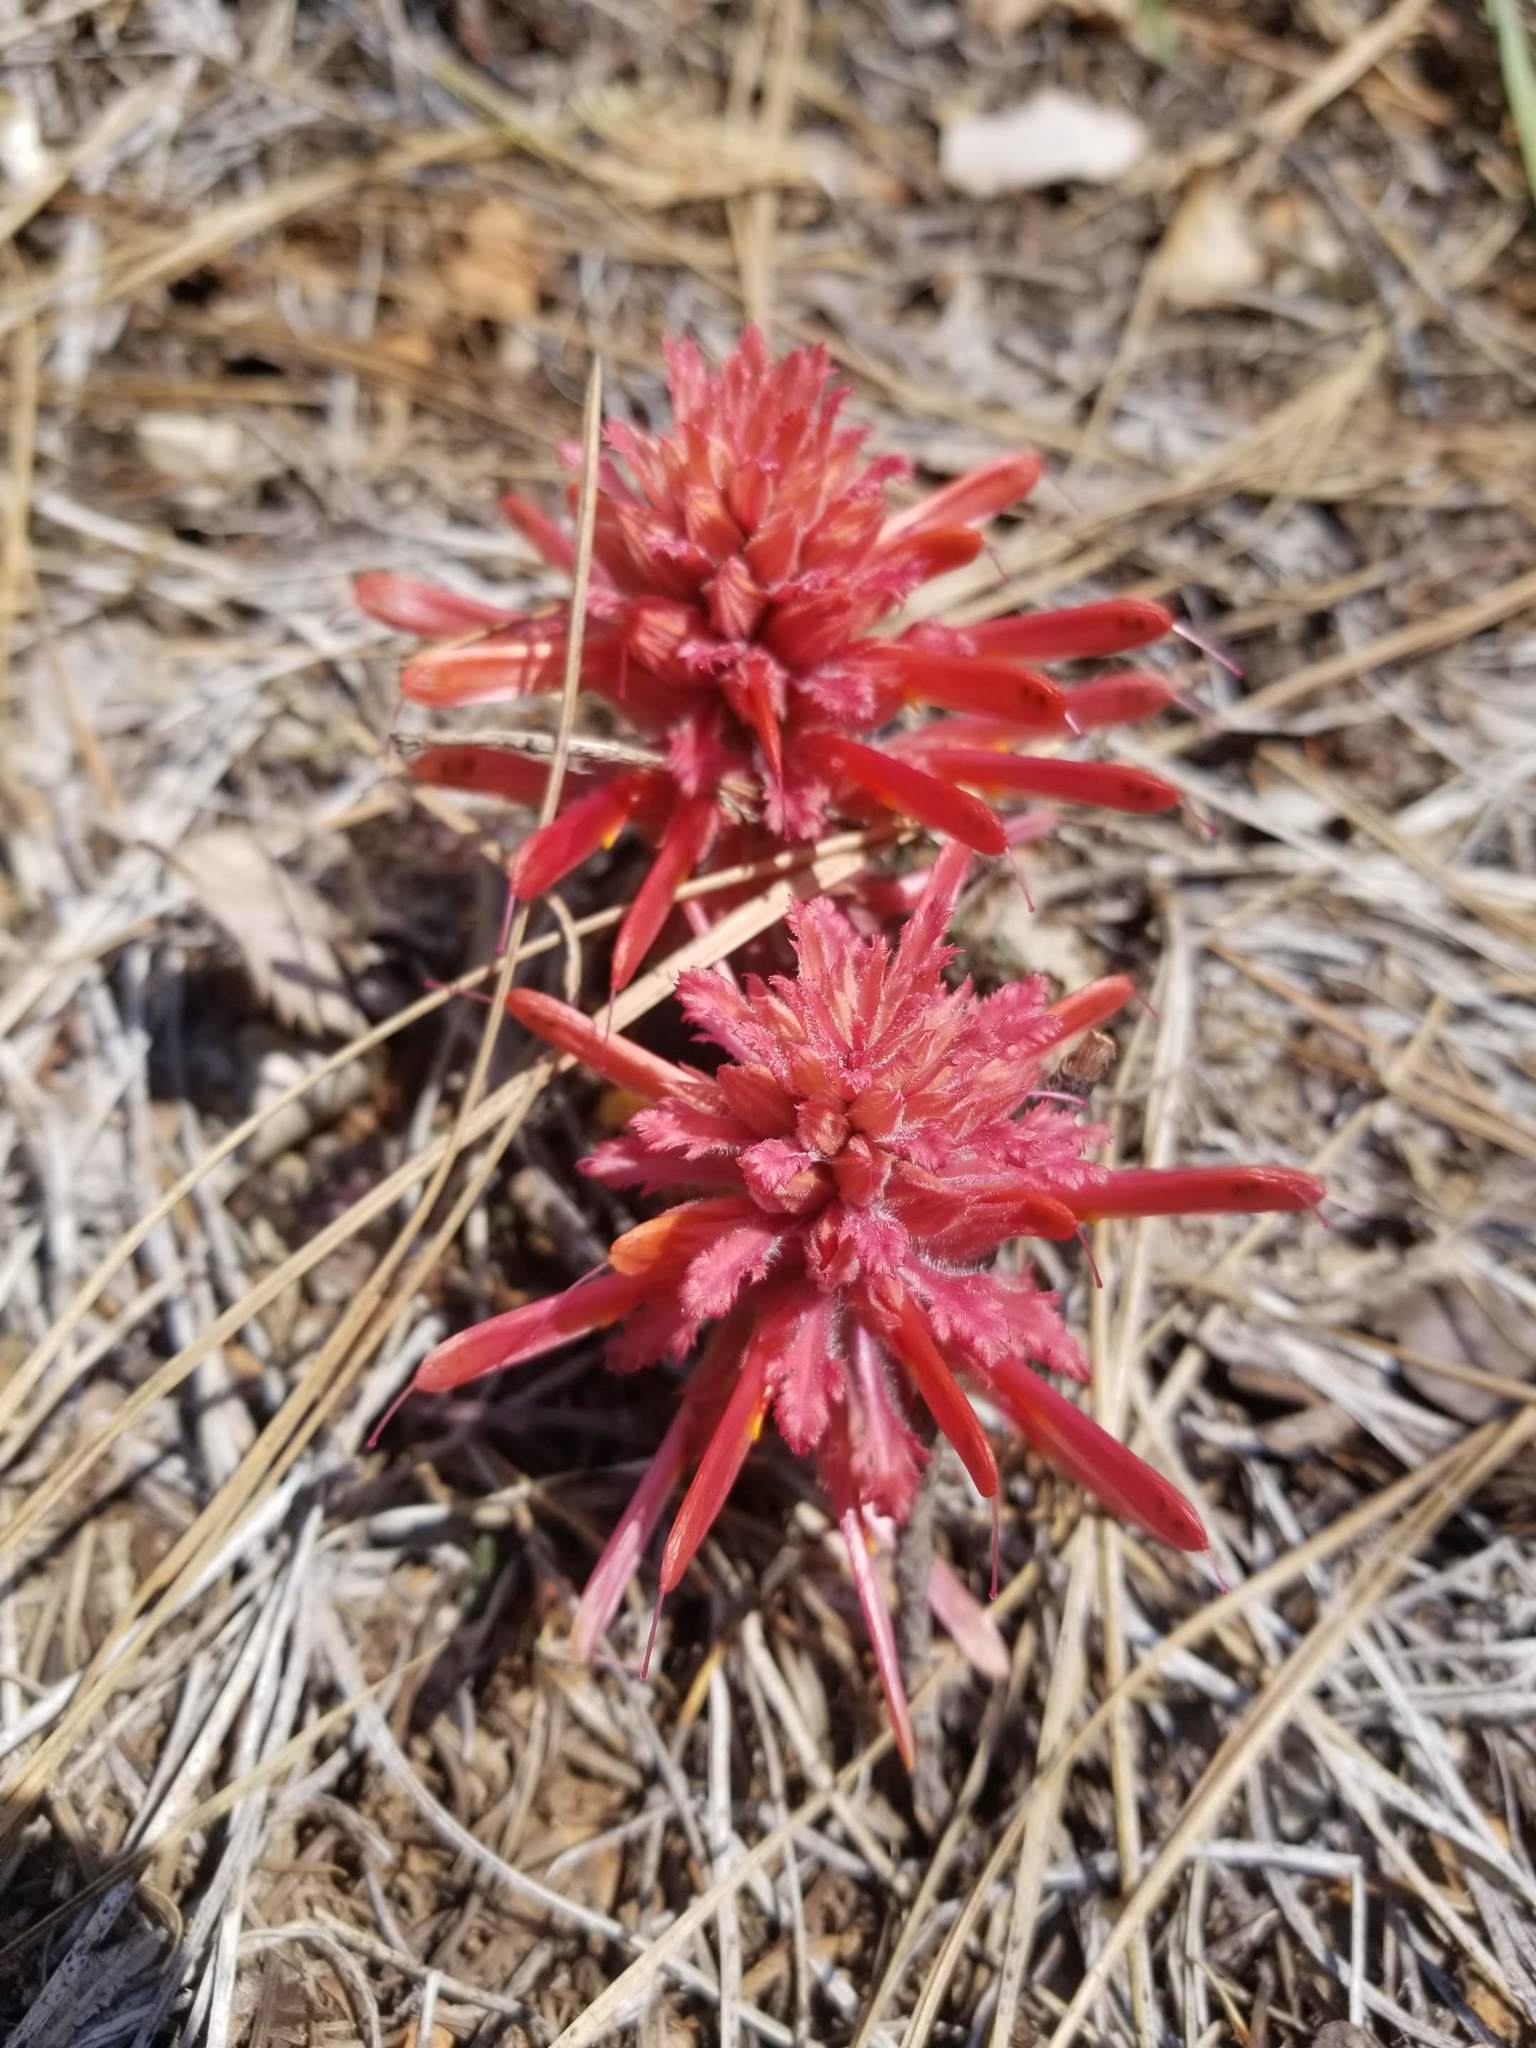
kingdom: Plantae
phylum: Tracheophyta
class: Magnoliopsida
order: Lamiales
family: Orobanchaceae
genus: Pedicularis
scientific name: Pedicularis densiflora
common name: Indian warrior
